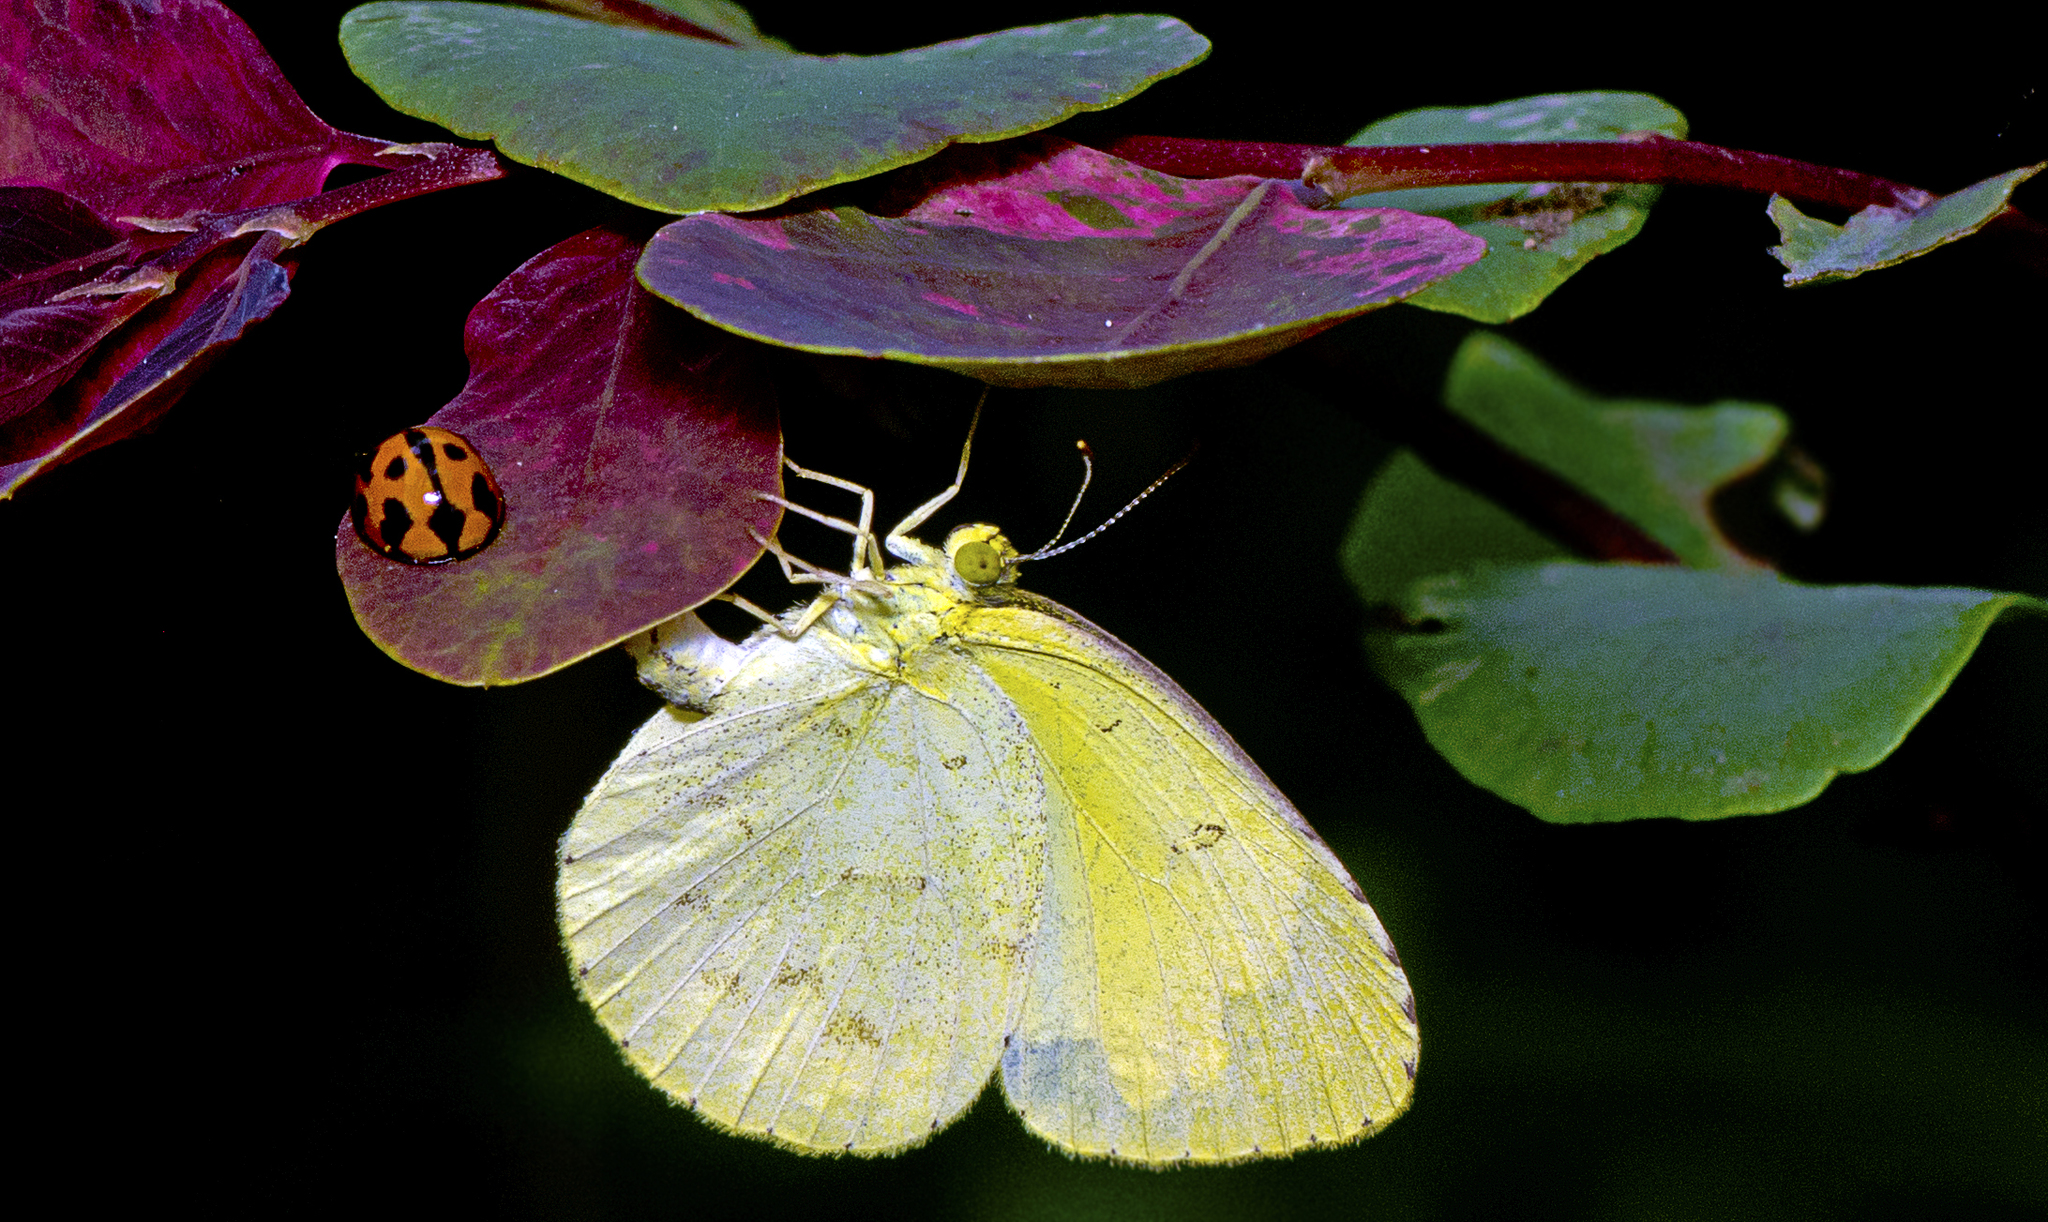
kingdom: Animalia
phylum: Arthropoda
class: Insecta
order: Lepidoptera
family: Pieridae
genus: Eurema
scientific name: Eurema hecabe
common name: Pale grass yellow
